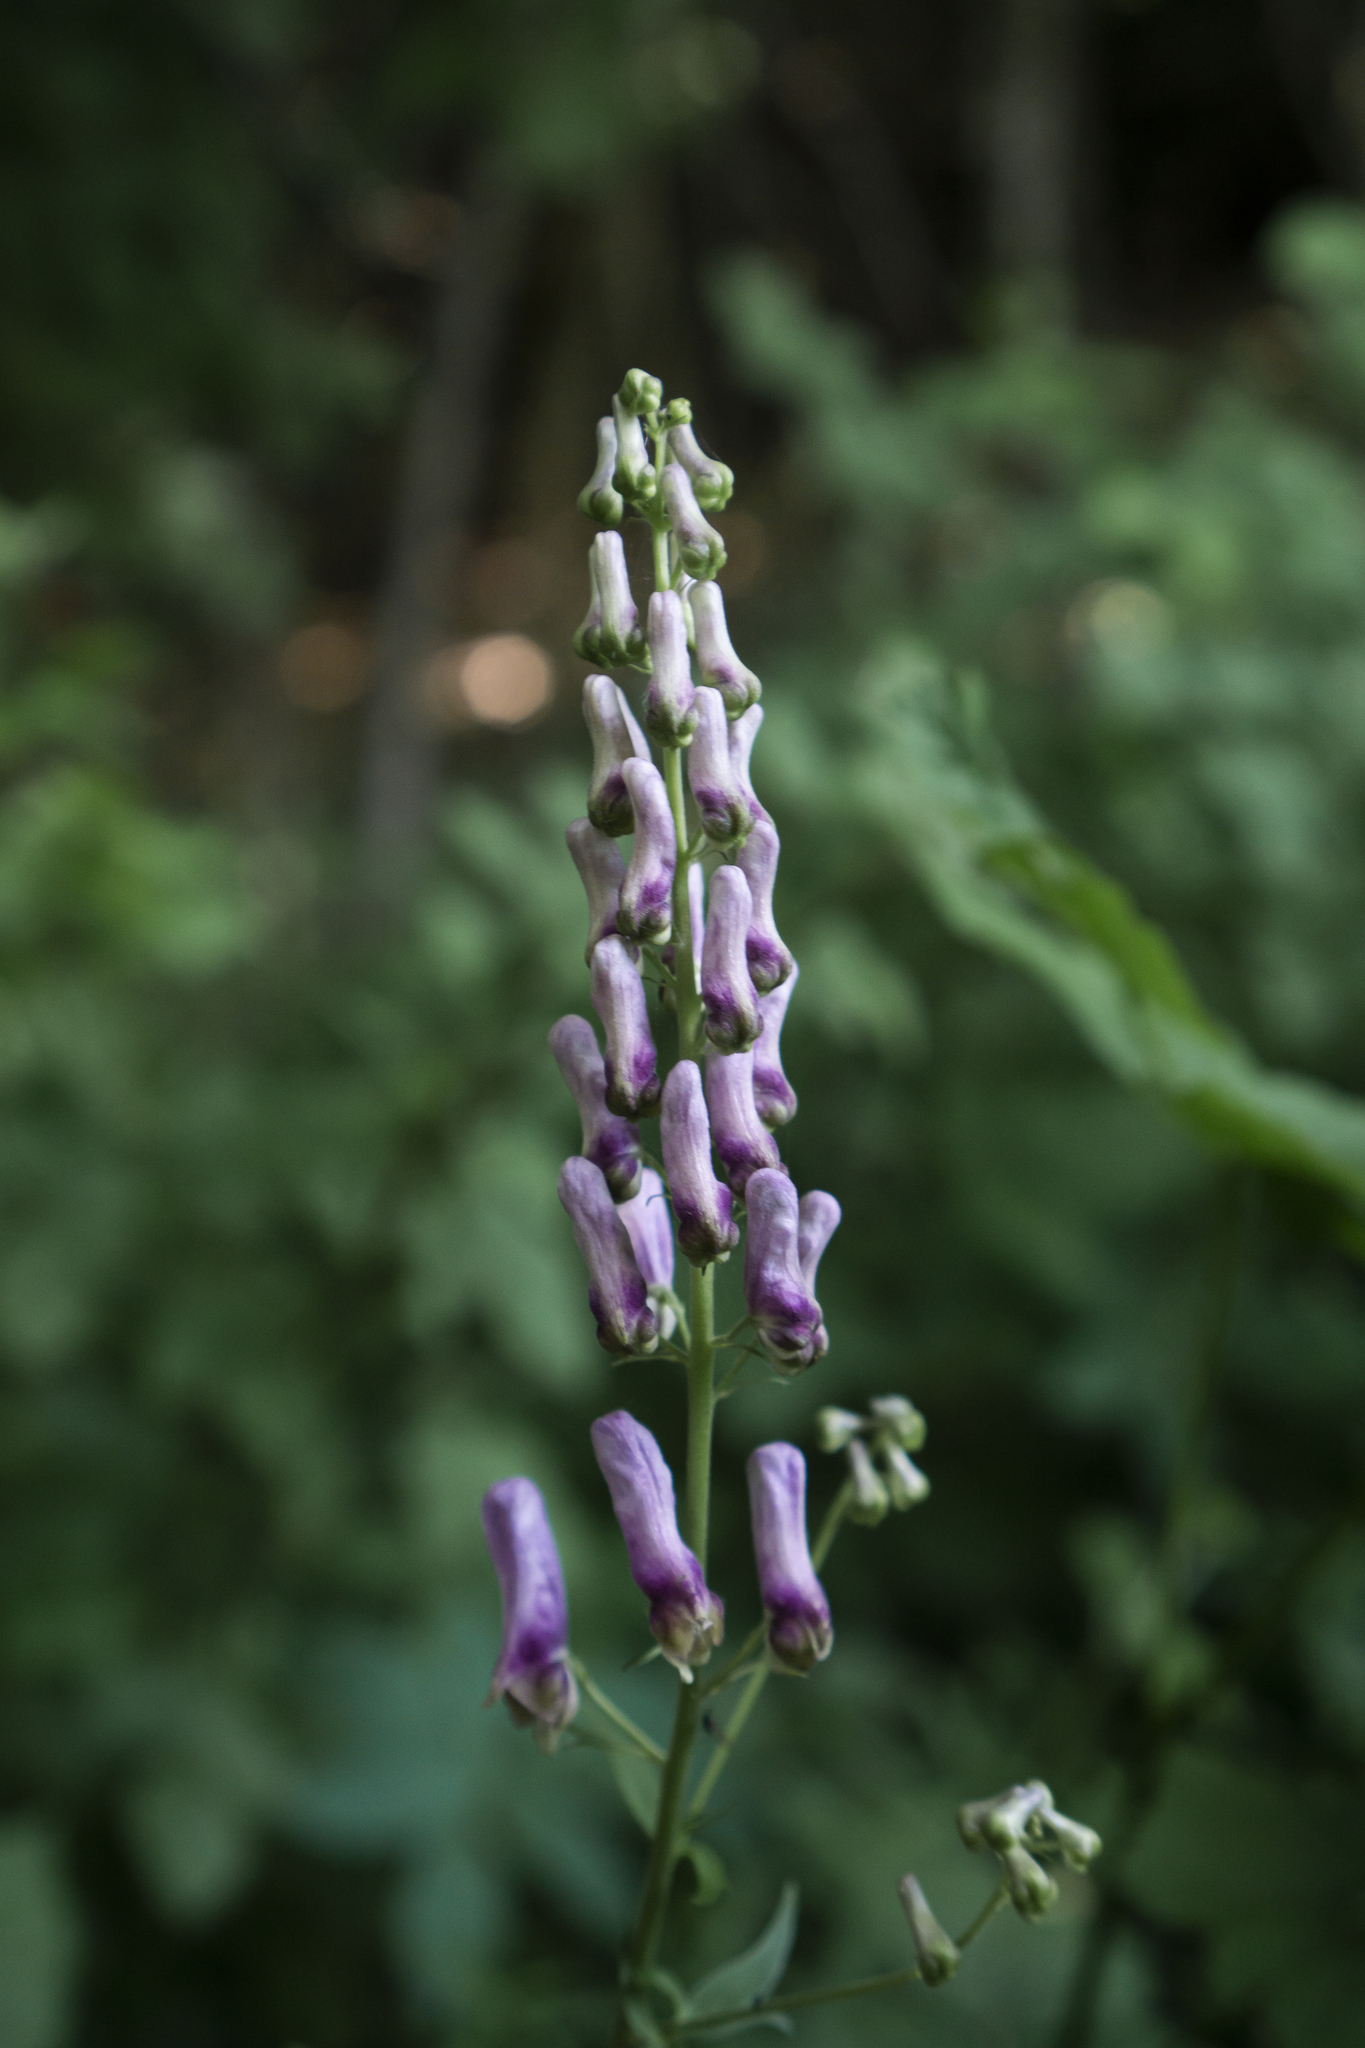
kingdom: Plantae
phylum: Tracheophyta
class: Magnoliopsida
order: Ranunculales
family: Ranunculaceae
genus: Aconitum
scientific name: Aconitum lycoctonum
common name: Wolf's-bane
